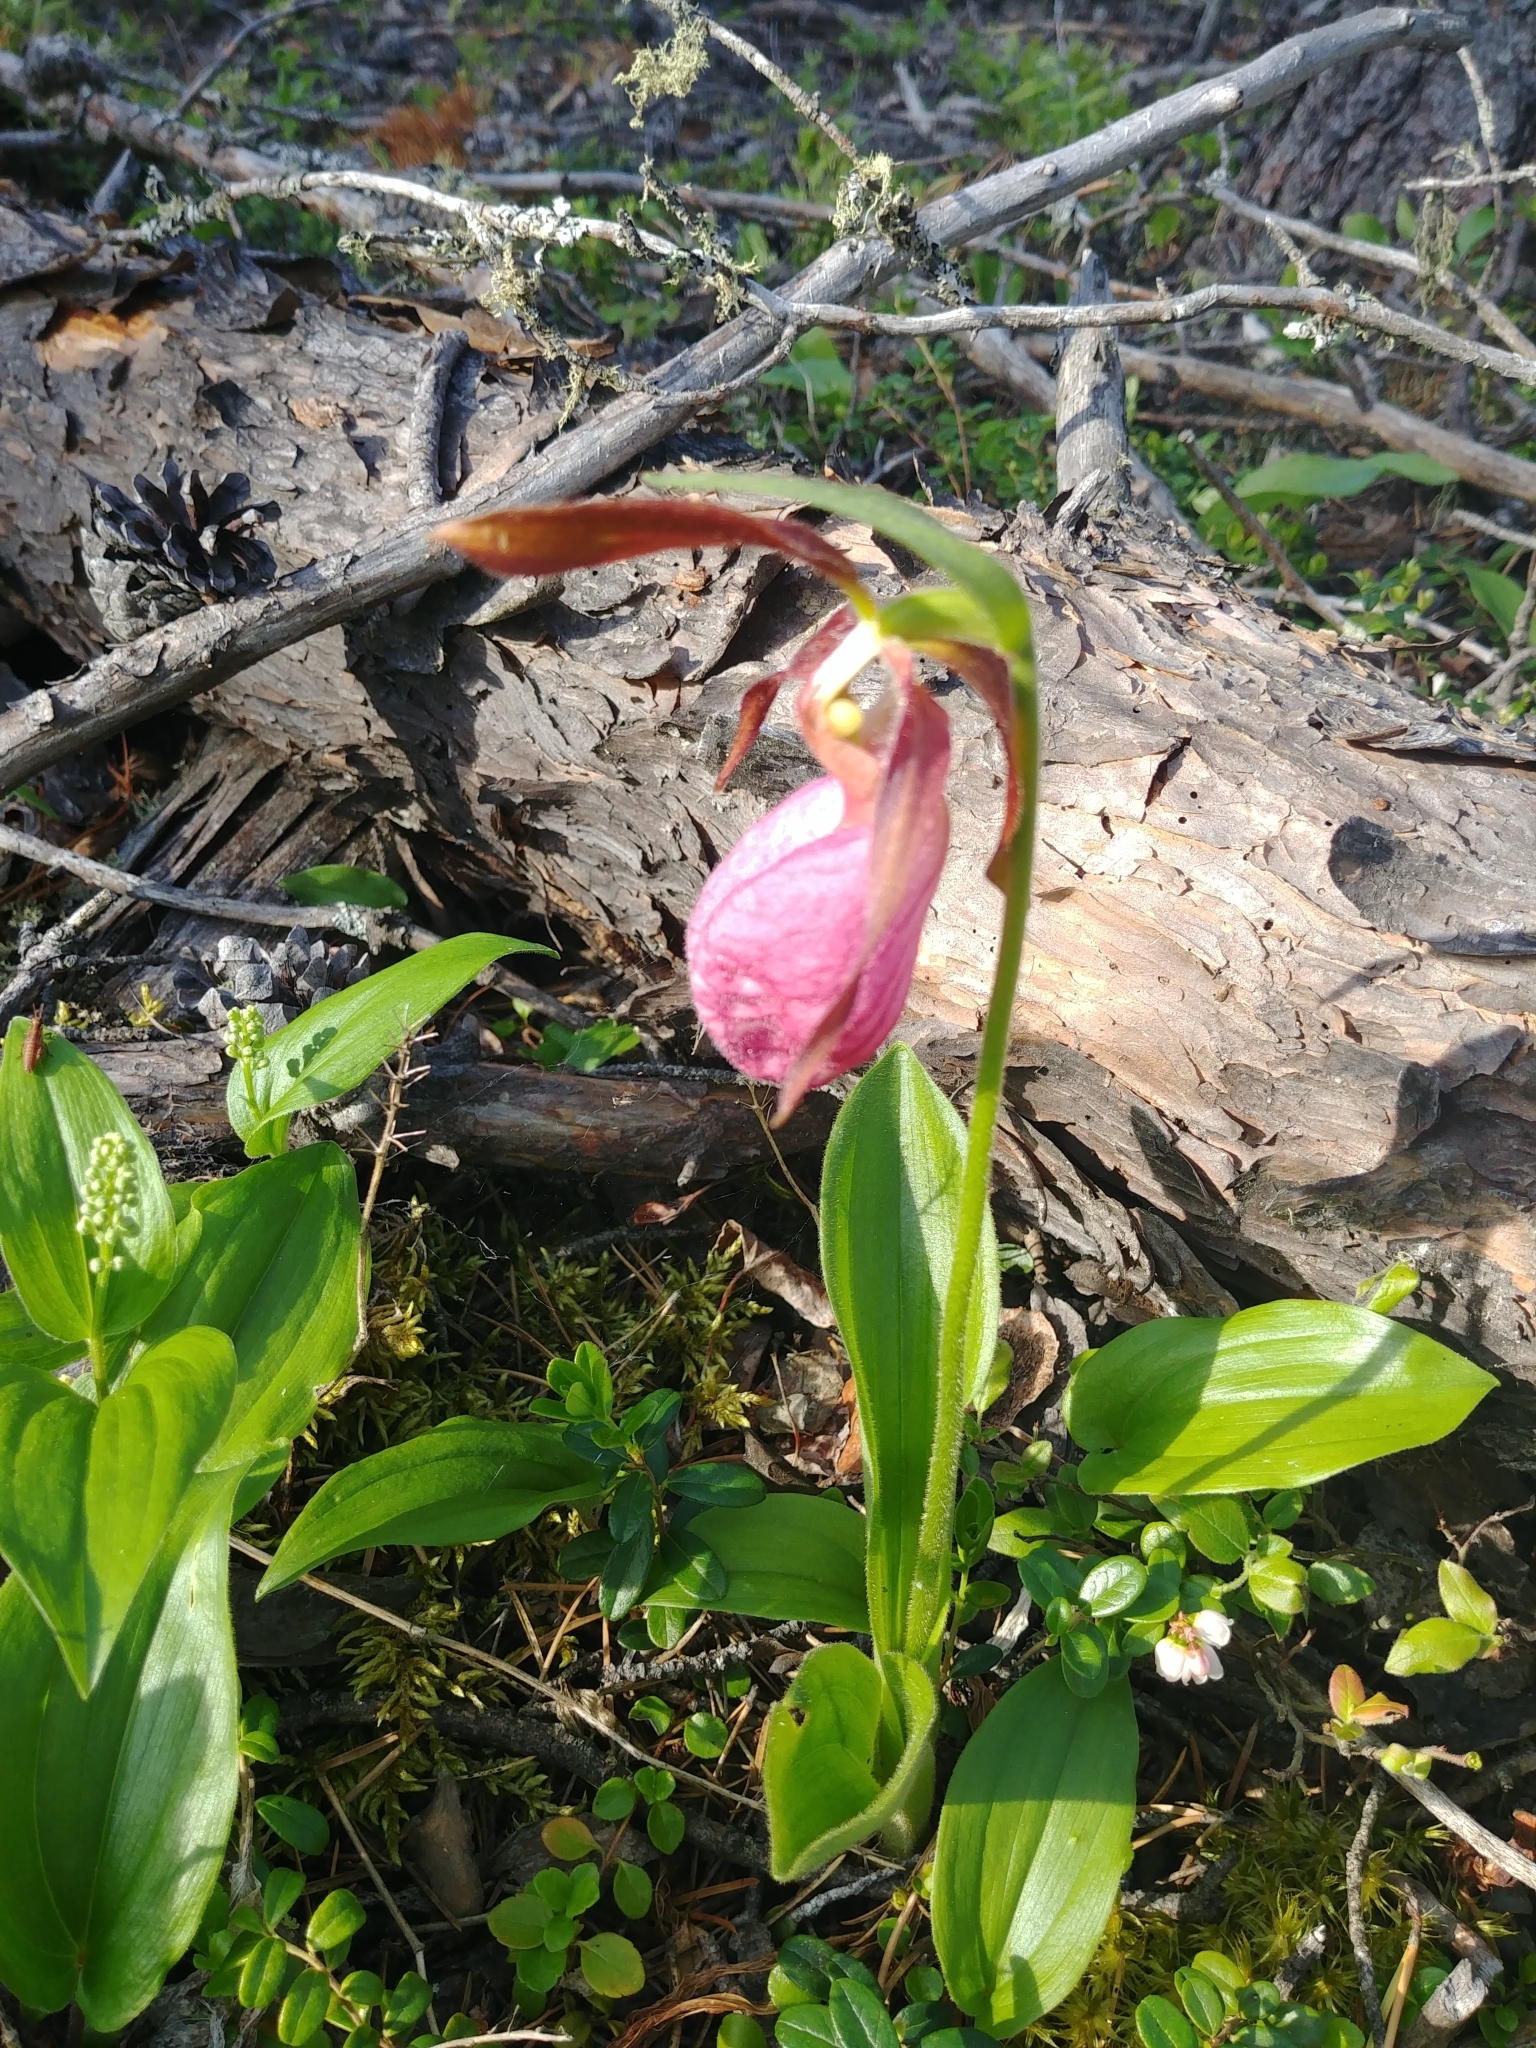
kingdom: Plantae
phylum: Tracheophyta
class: Liliopsida
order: Asparagales
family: Orchidaceae
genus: Cypripedium
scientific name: Cypripedium acaule
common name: Pink lady's-slipper
